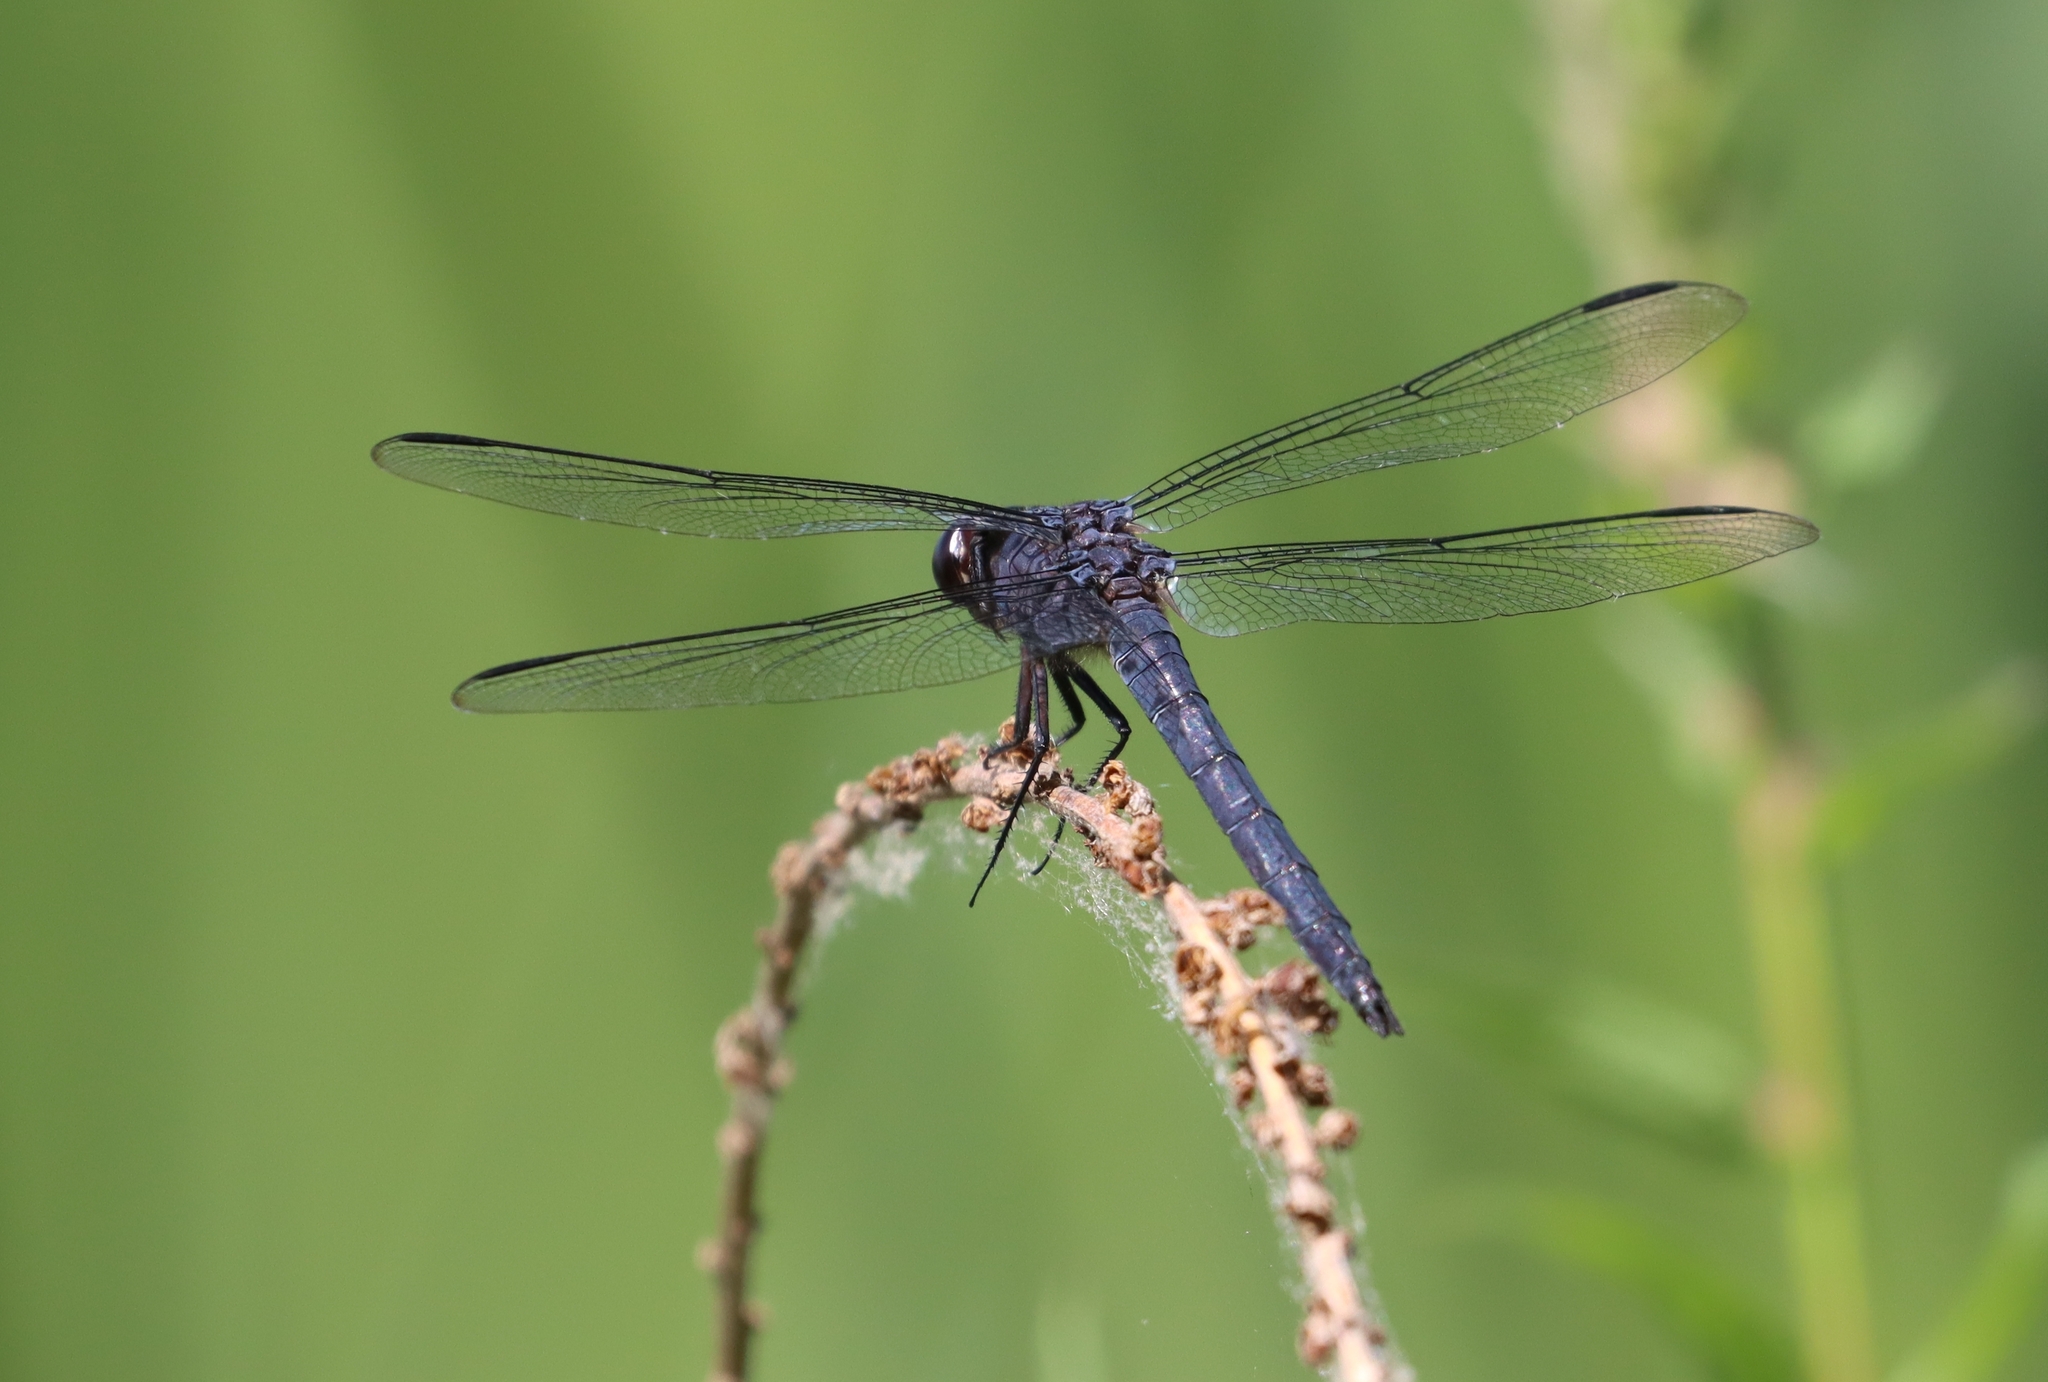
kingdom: Animalia
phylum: Arthropoda
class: Insecta
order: Odonata
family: Libellulidae
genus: Libellula
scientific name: Libellula incesta
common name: Slaty skimmer
